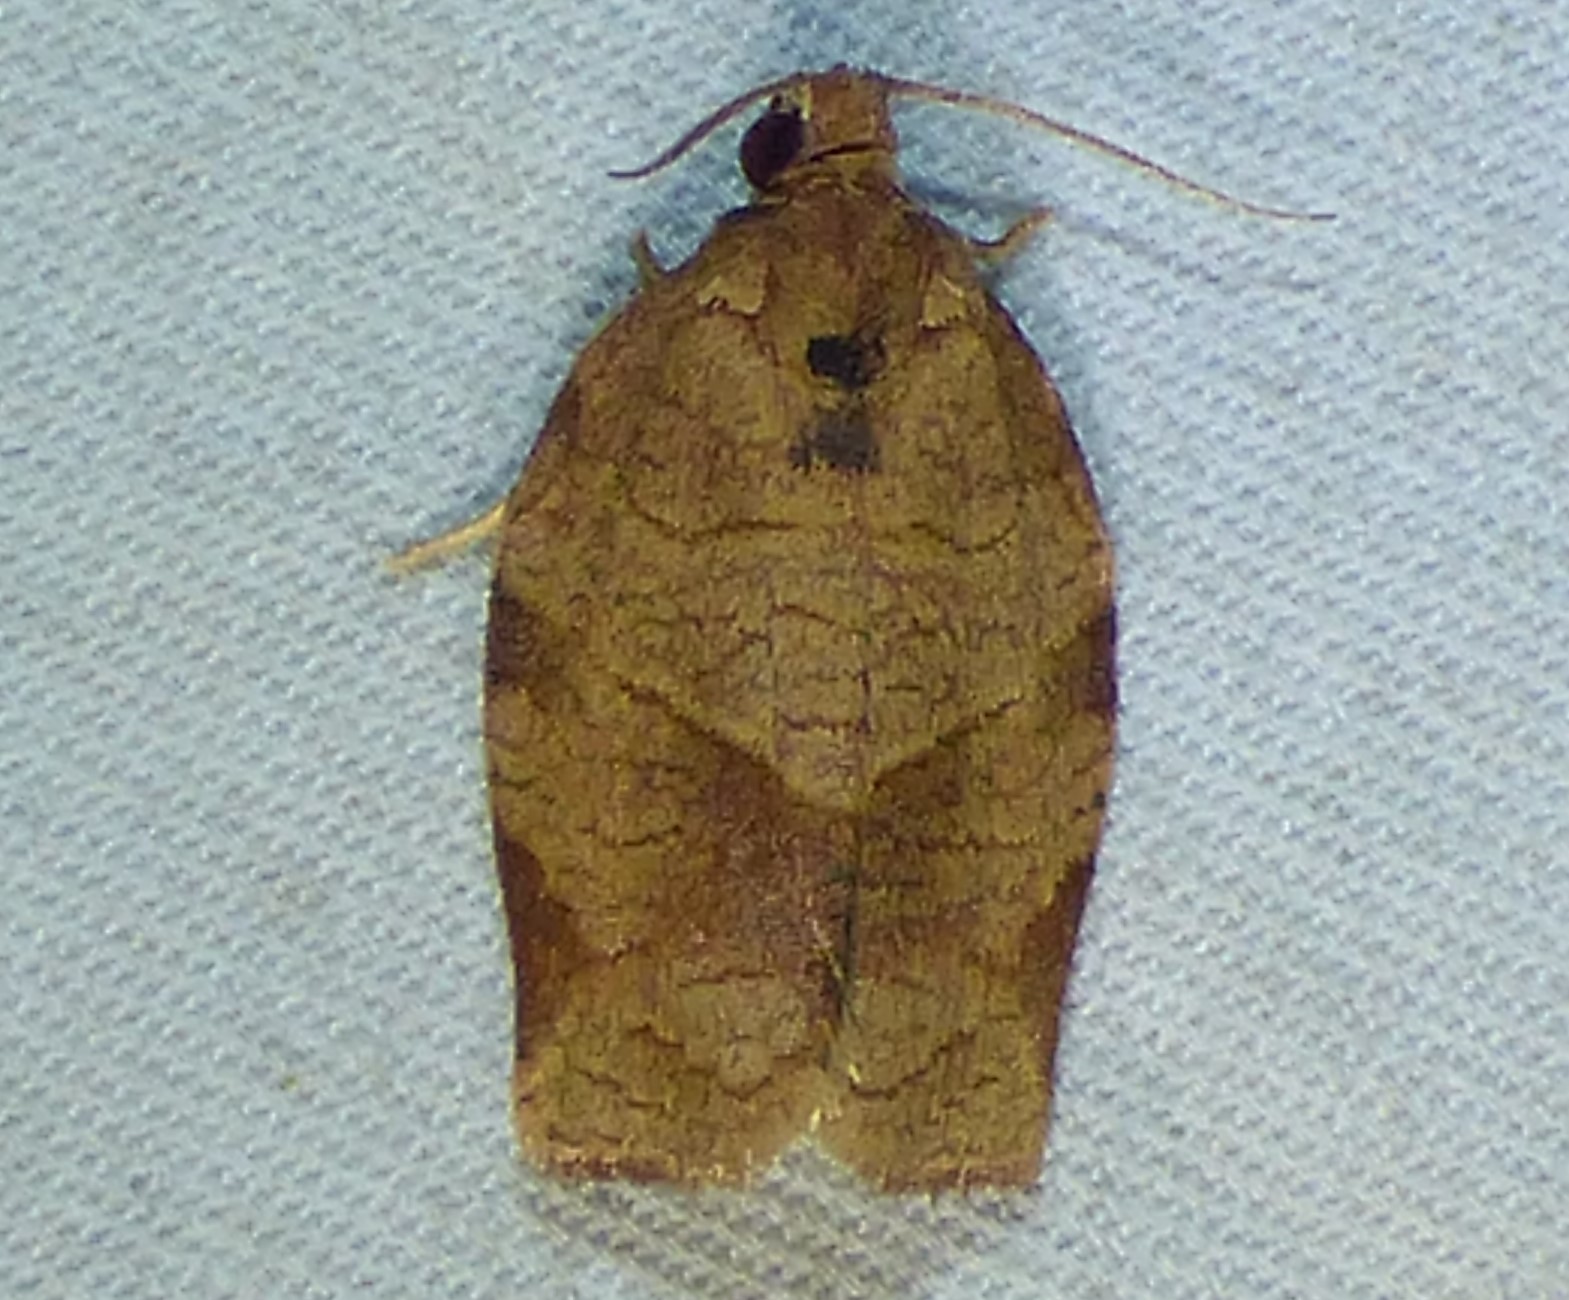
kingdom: Animalia
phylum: Arthropoda
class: Insecta
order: Lepidoptera
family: Tortricidae
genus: Choristoneura
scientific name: Choristoneura rosaceana
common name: Oblique-banded leafroller moth
